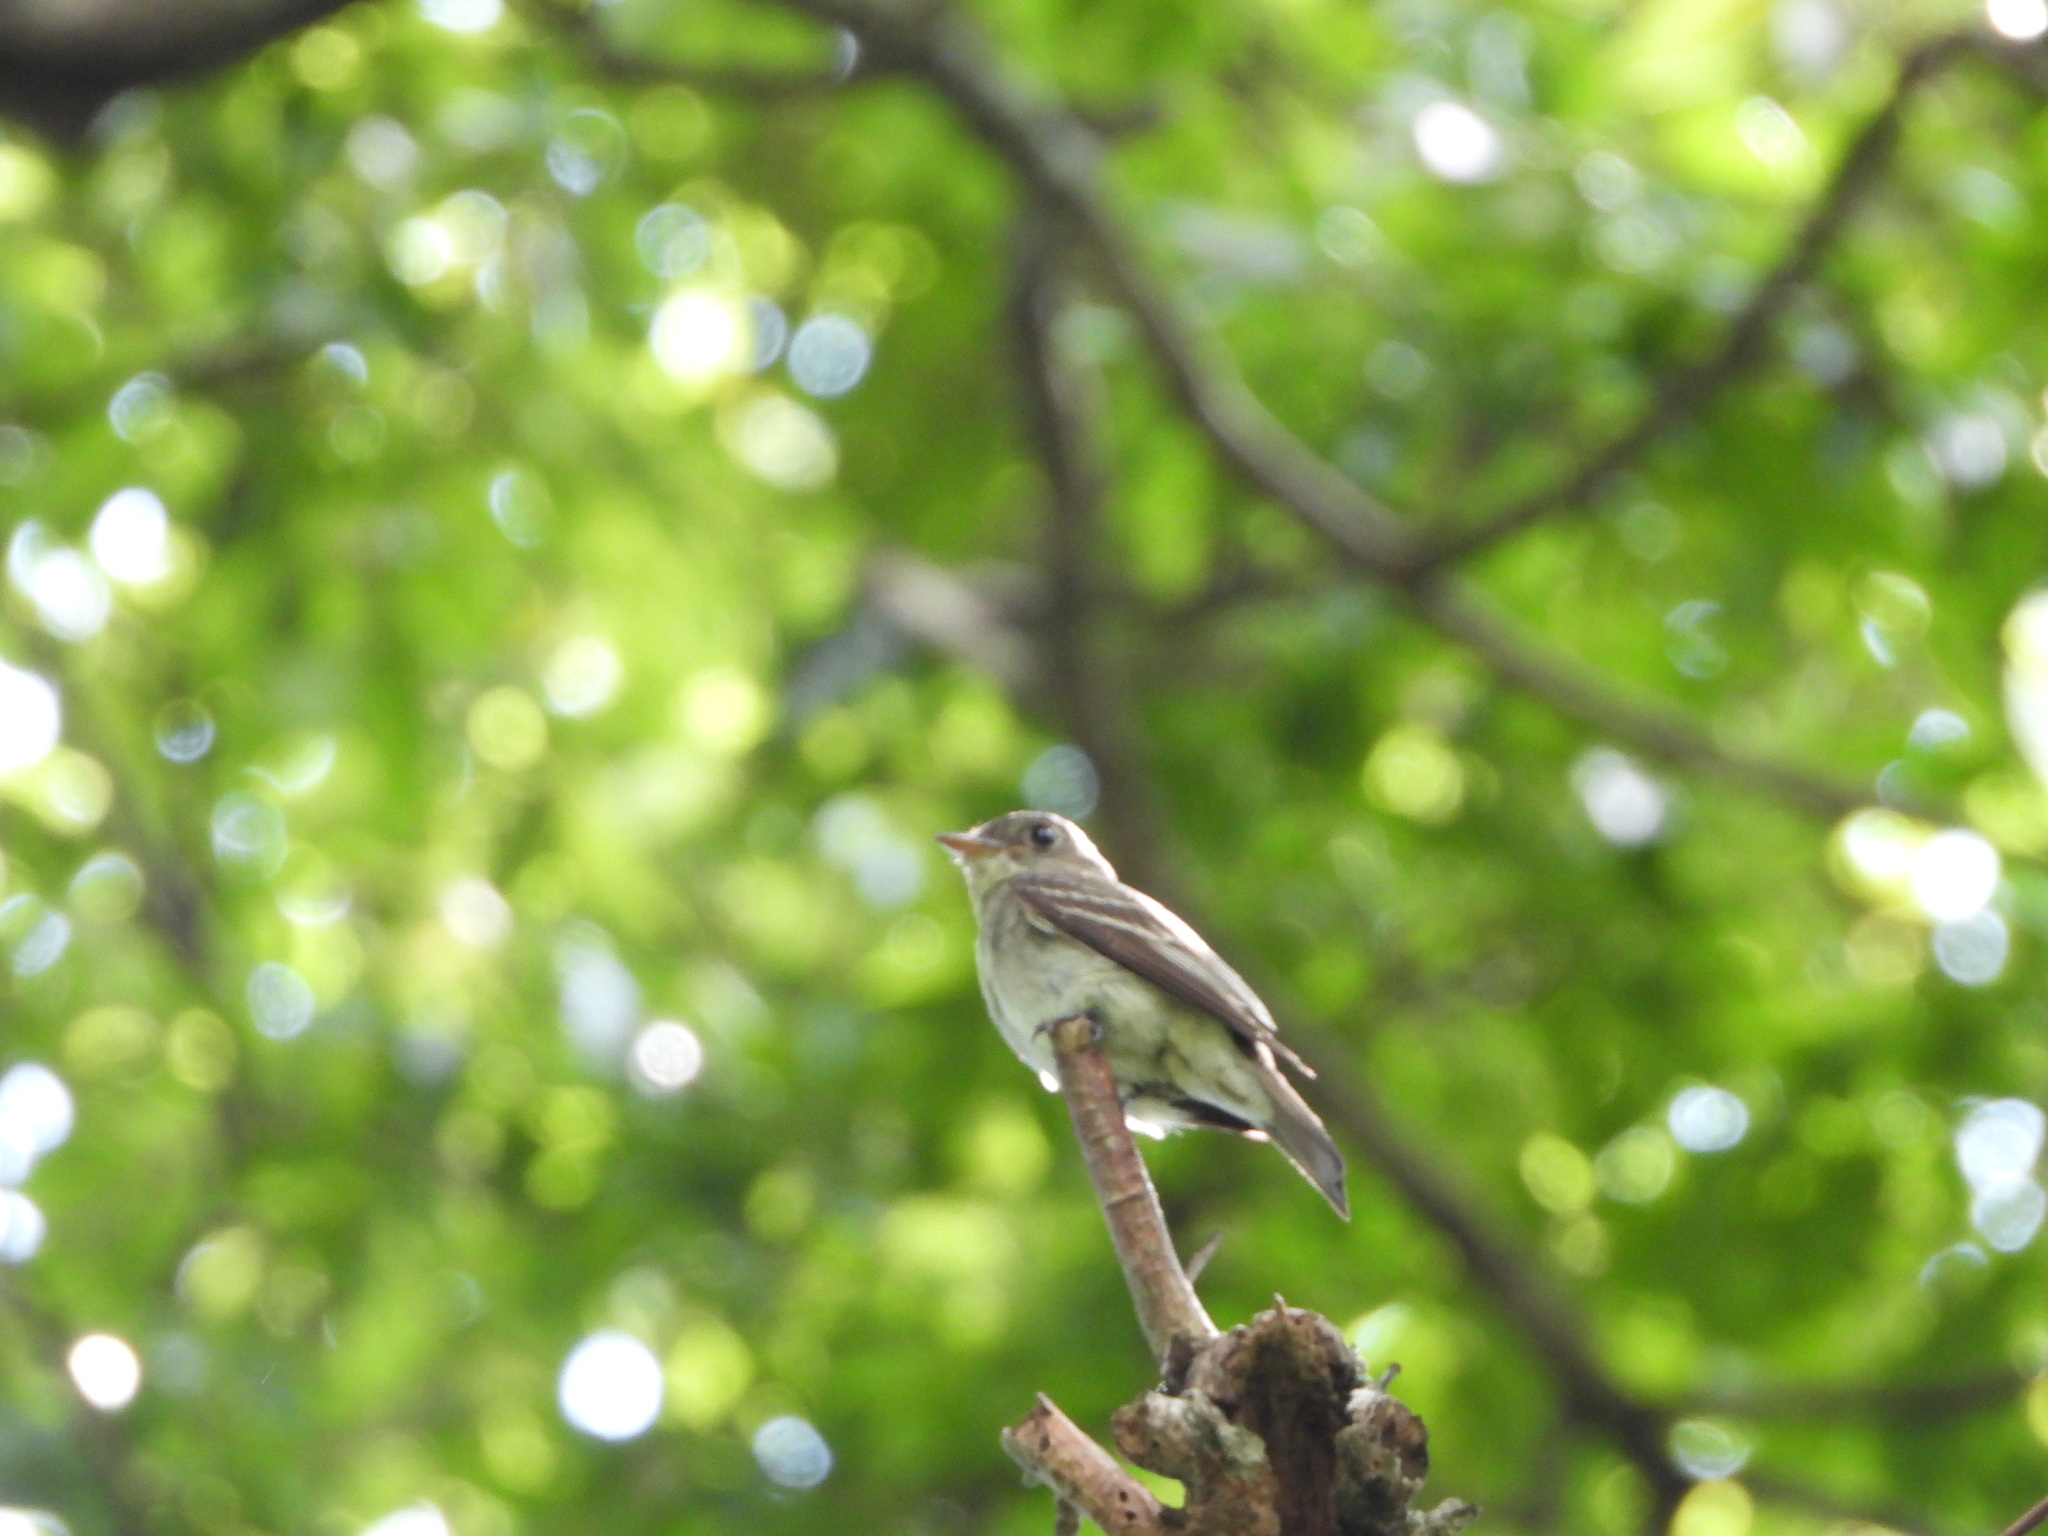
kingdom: Animalia
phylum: Chordata
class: Aves
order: Passeriformes
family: Tyrannidae
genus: Contopus
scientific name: Contopus virens
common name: Eastern wood-pewee
